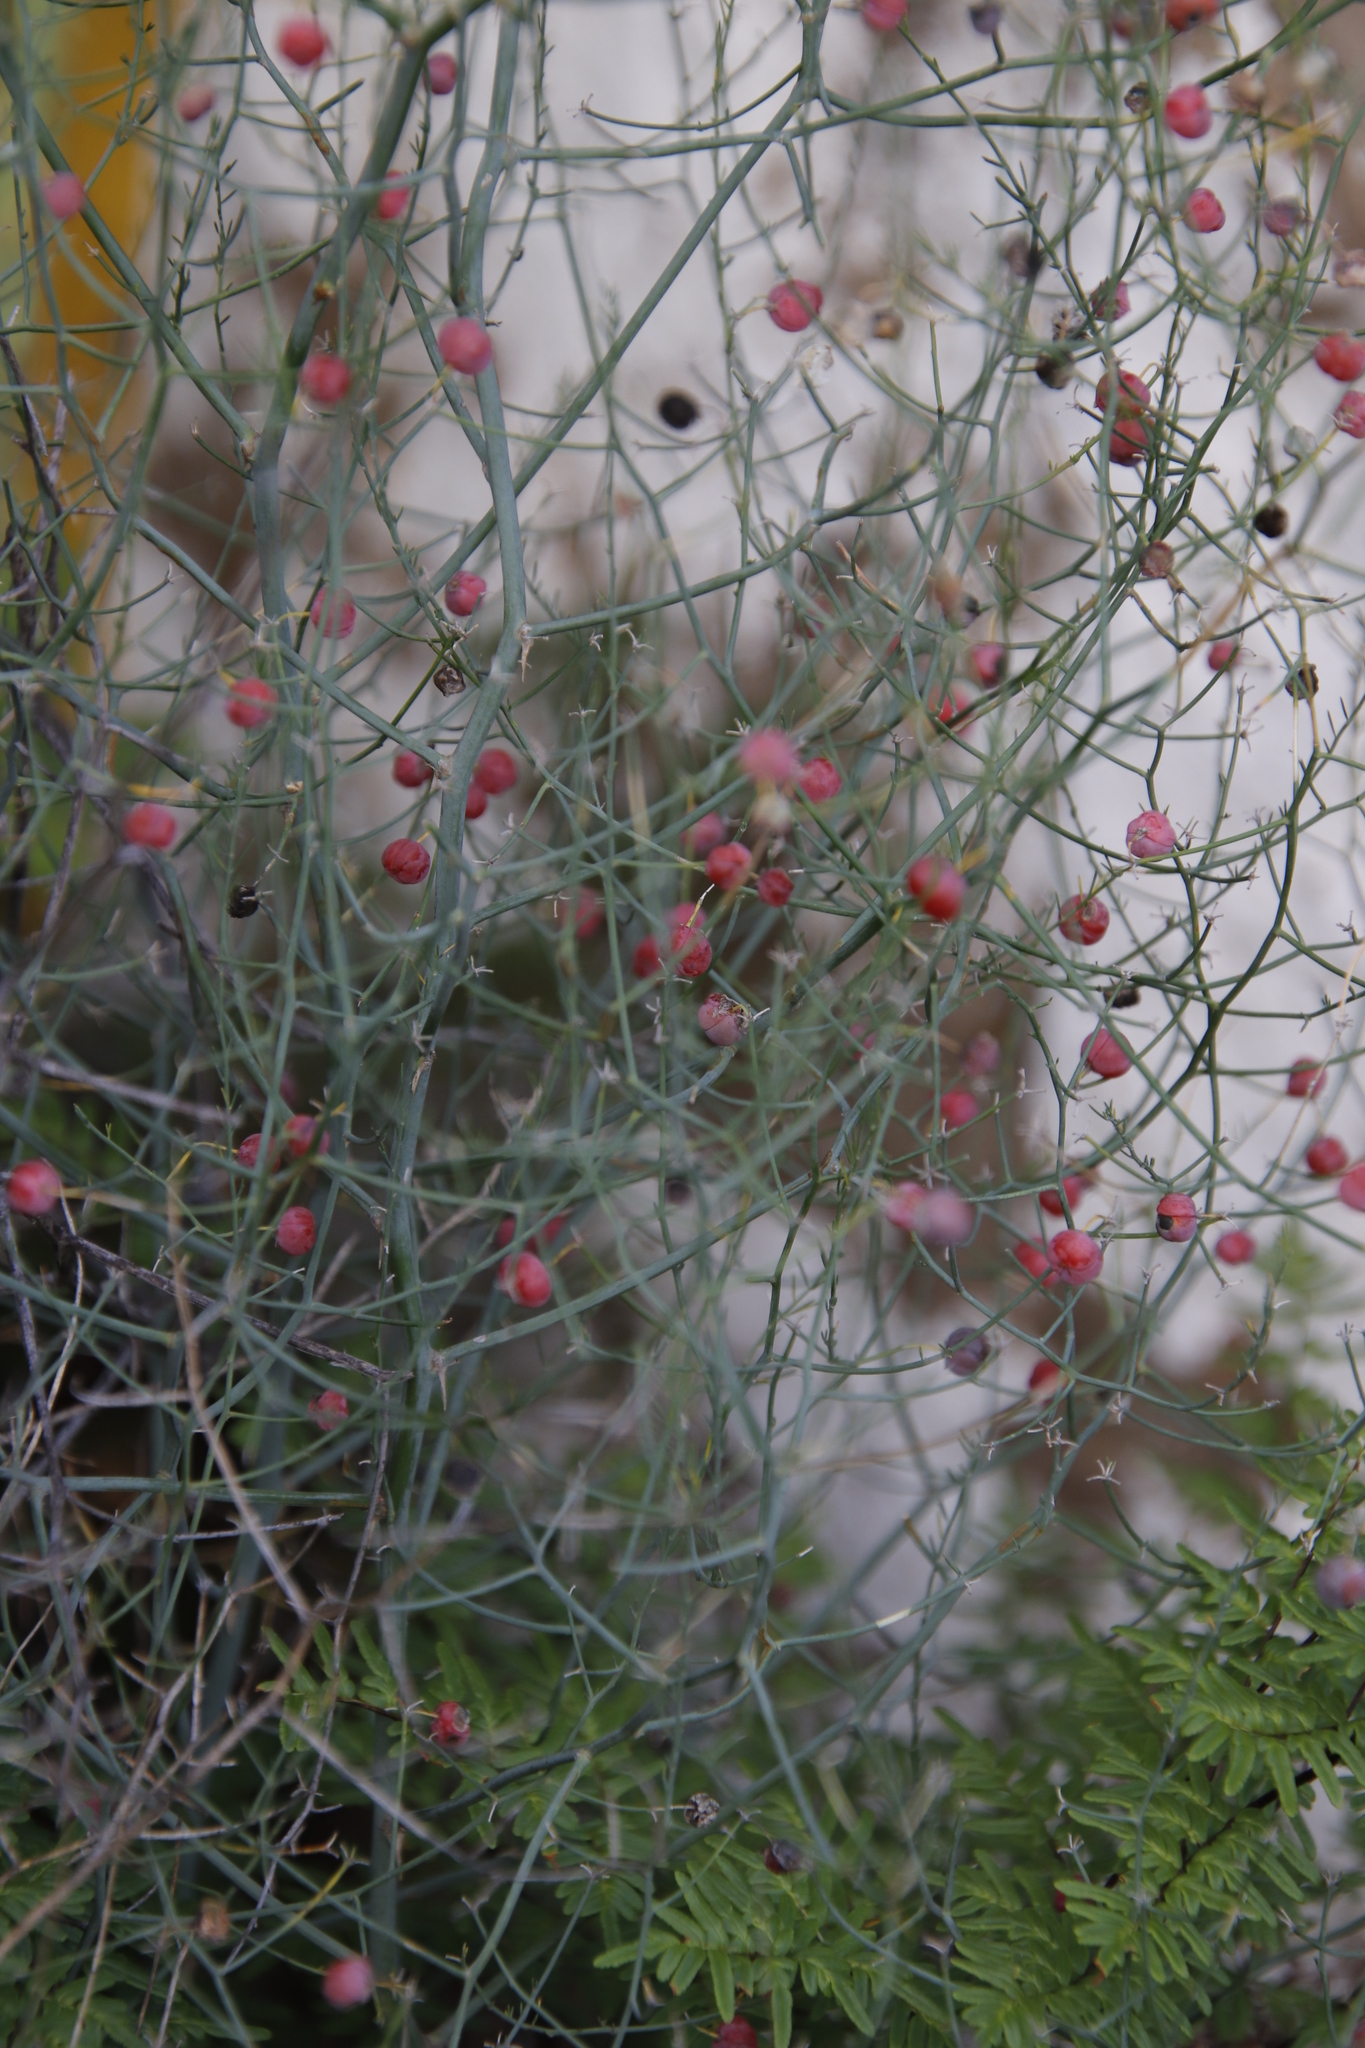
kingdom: Plantae
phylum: Tracheophyta
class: Liliopsida
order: Asparagales
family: Asparagaceae
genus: Asparagus
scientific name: Asparagus denudatus
